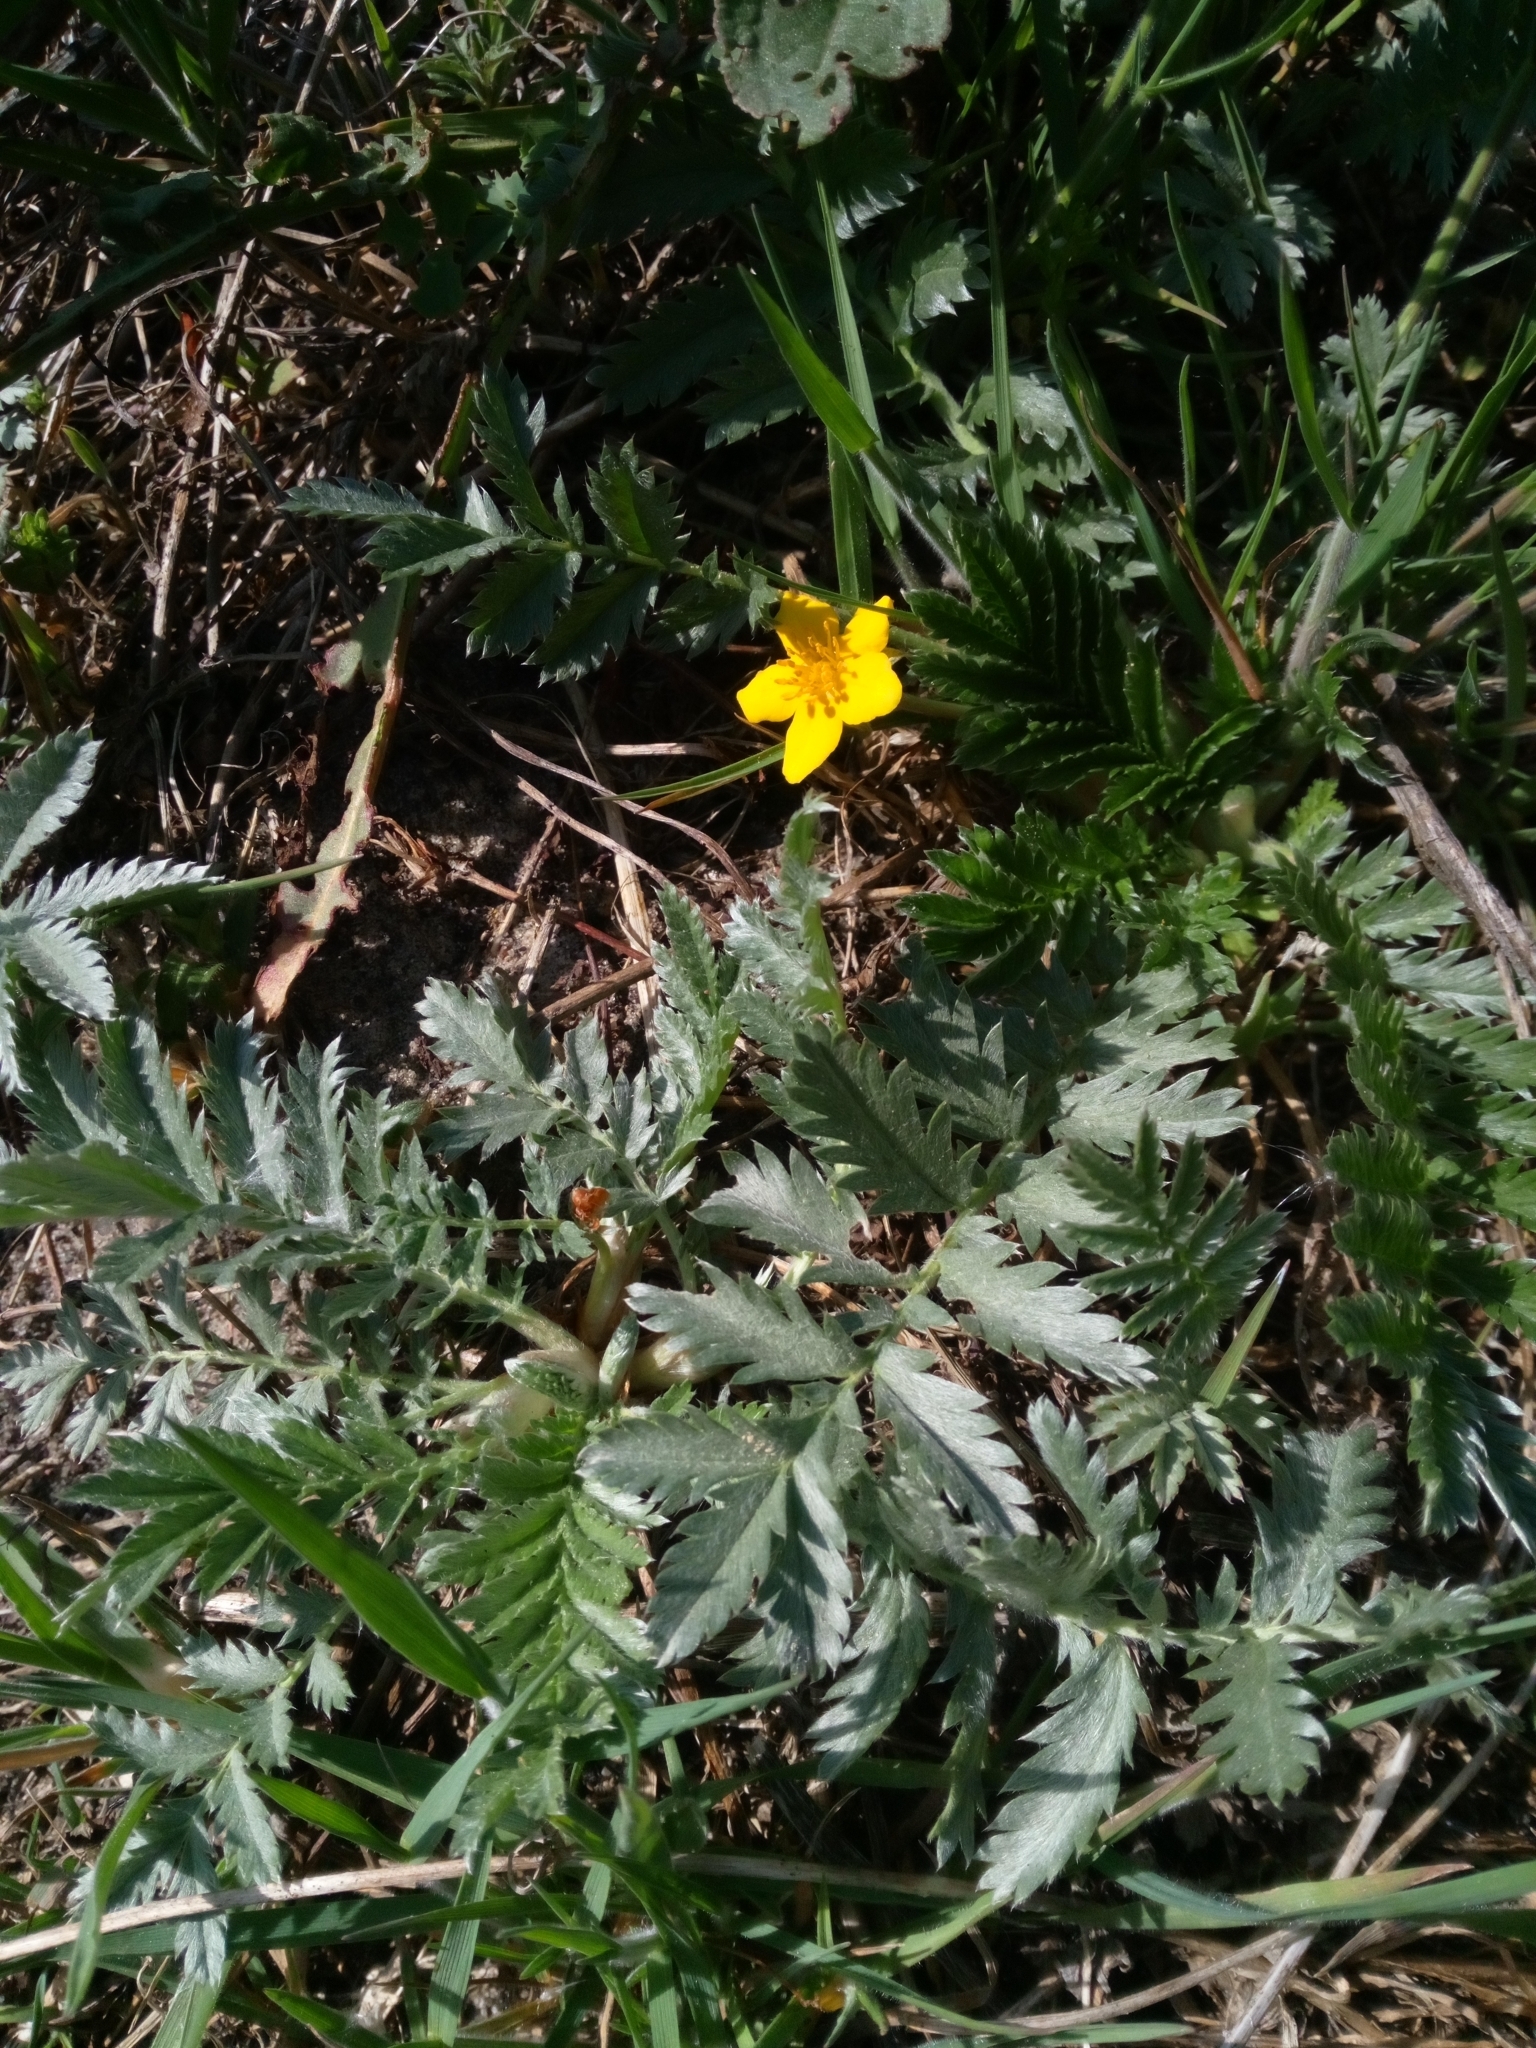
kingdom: Plantae
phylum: Tracheophyta
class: Magnoliopsida
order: Rosales
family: Rosaceae
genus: Argentina
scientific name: Argentina anserina
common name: Common silverweed
